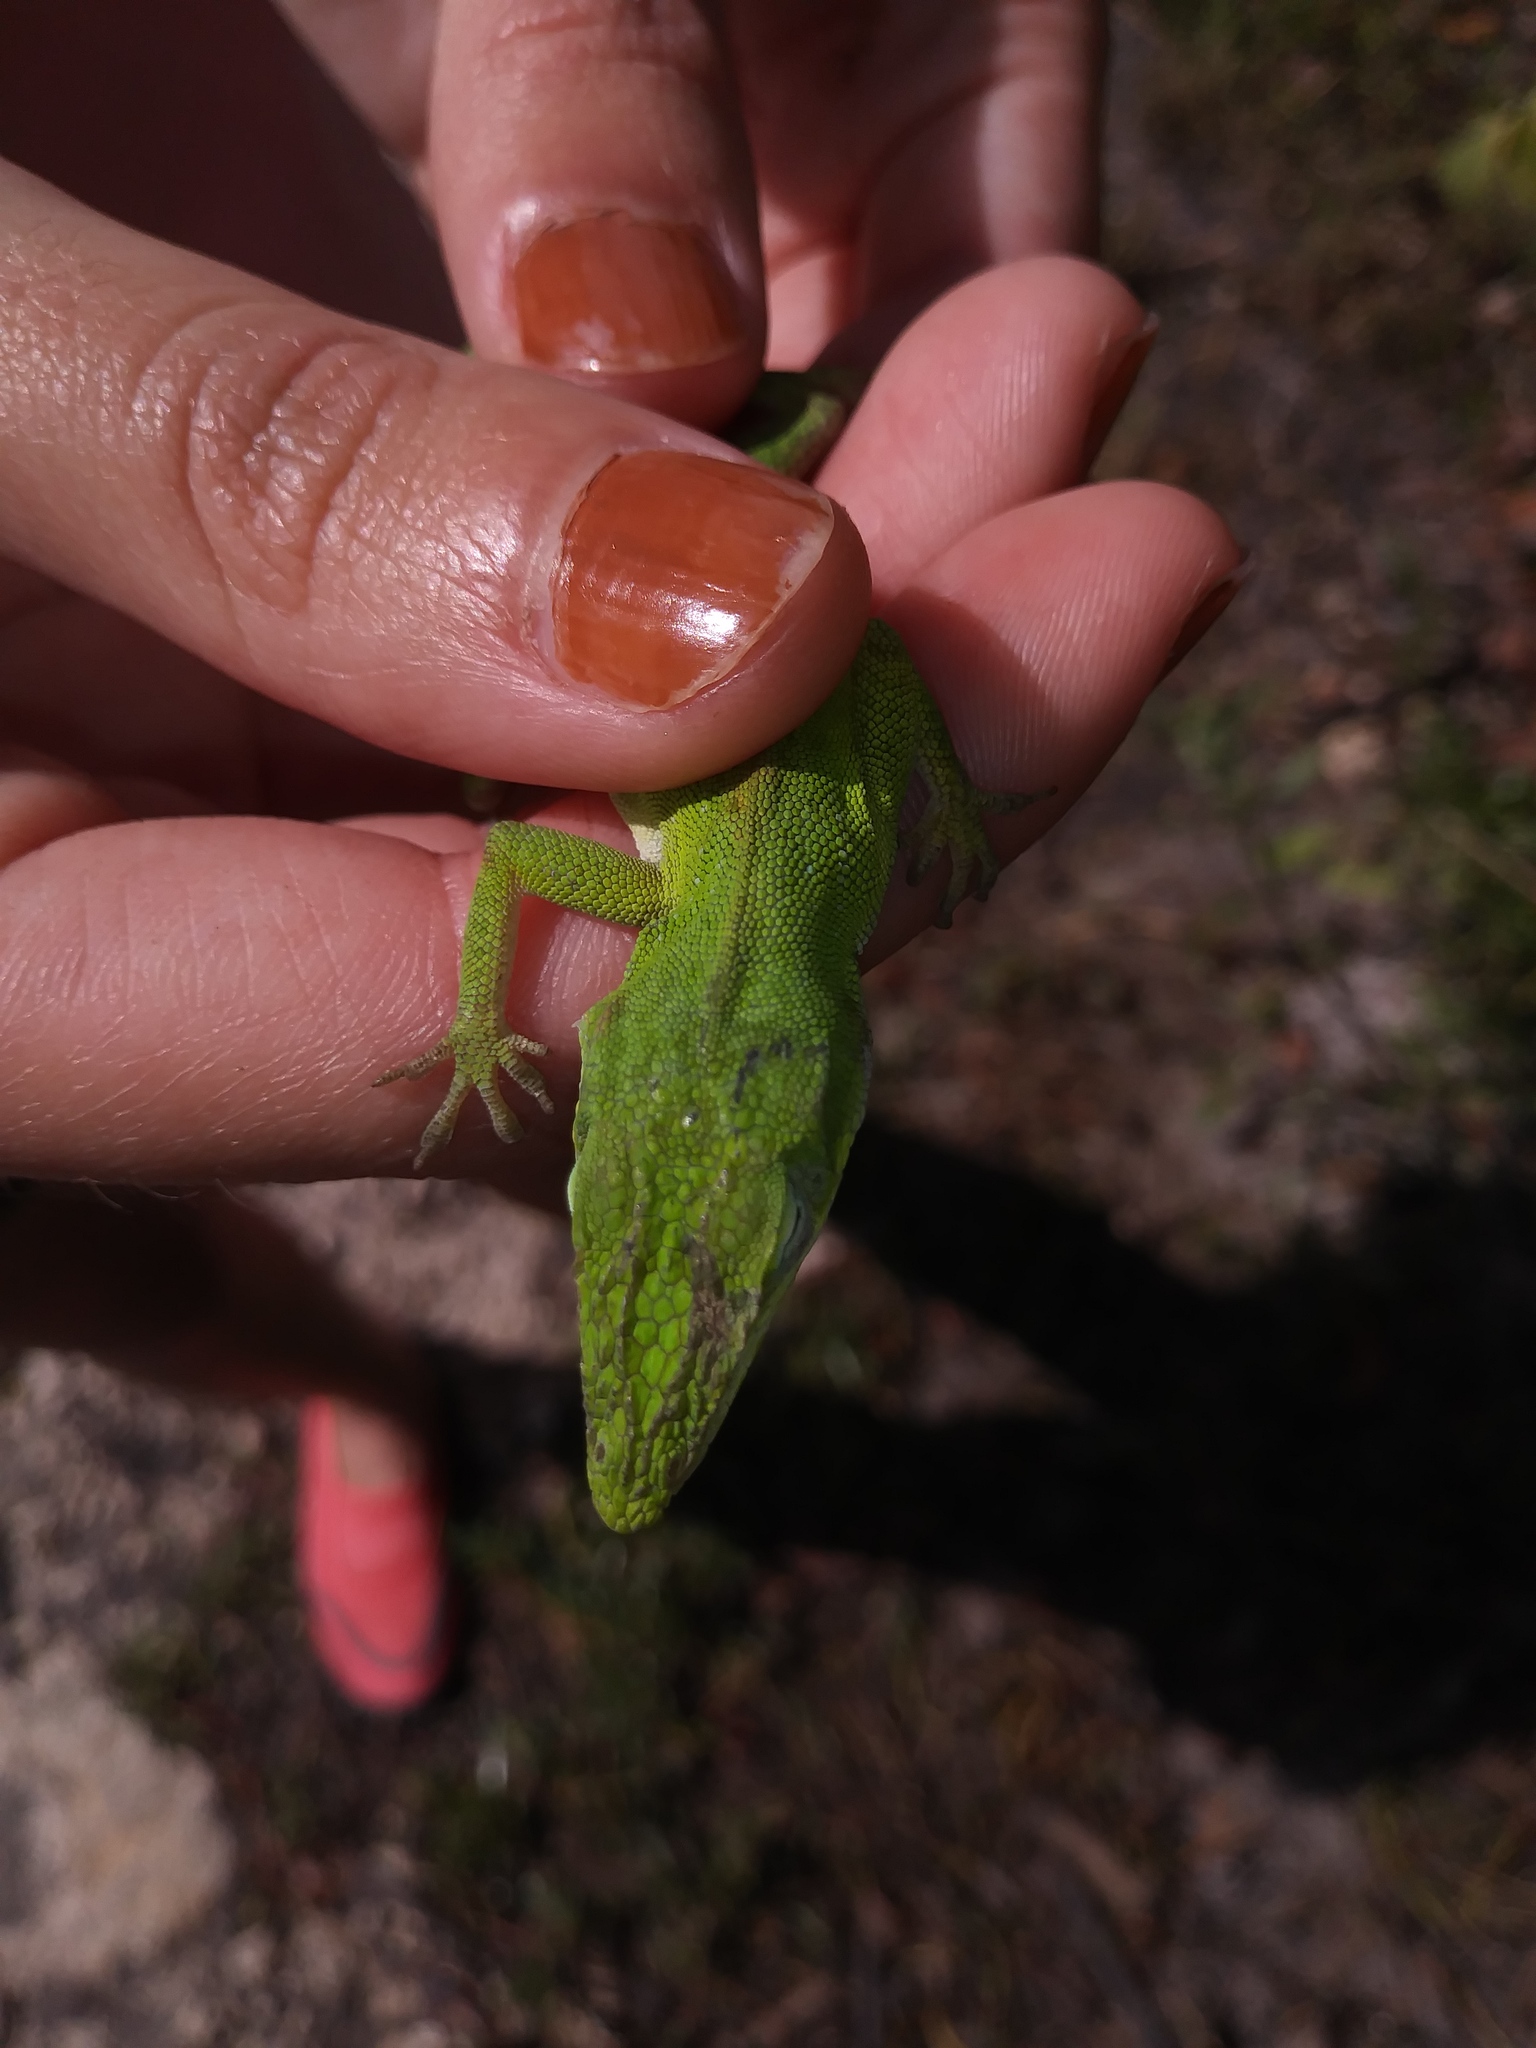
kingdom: Animalia
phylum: Chordata
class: Squamata
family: Dactyloidae
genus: Anolis
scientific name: Anolis carolinensis
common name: Green anole
